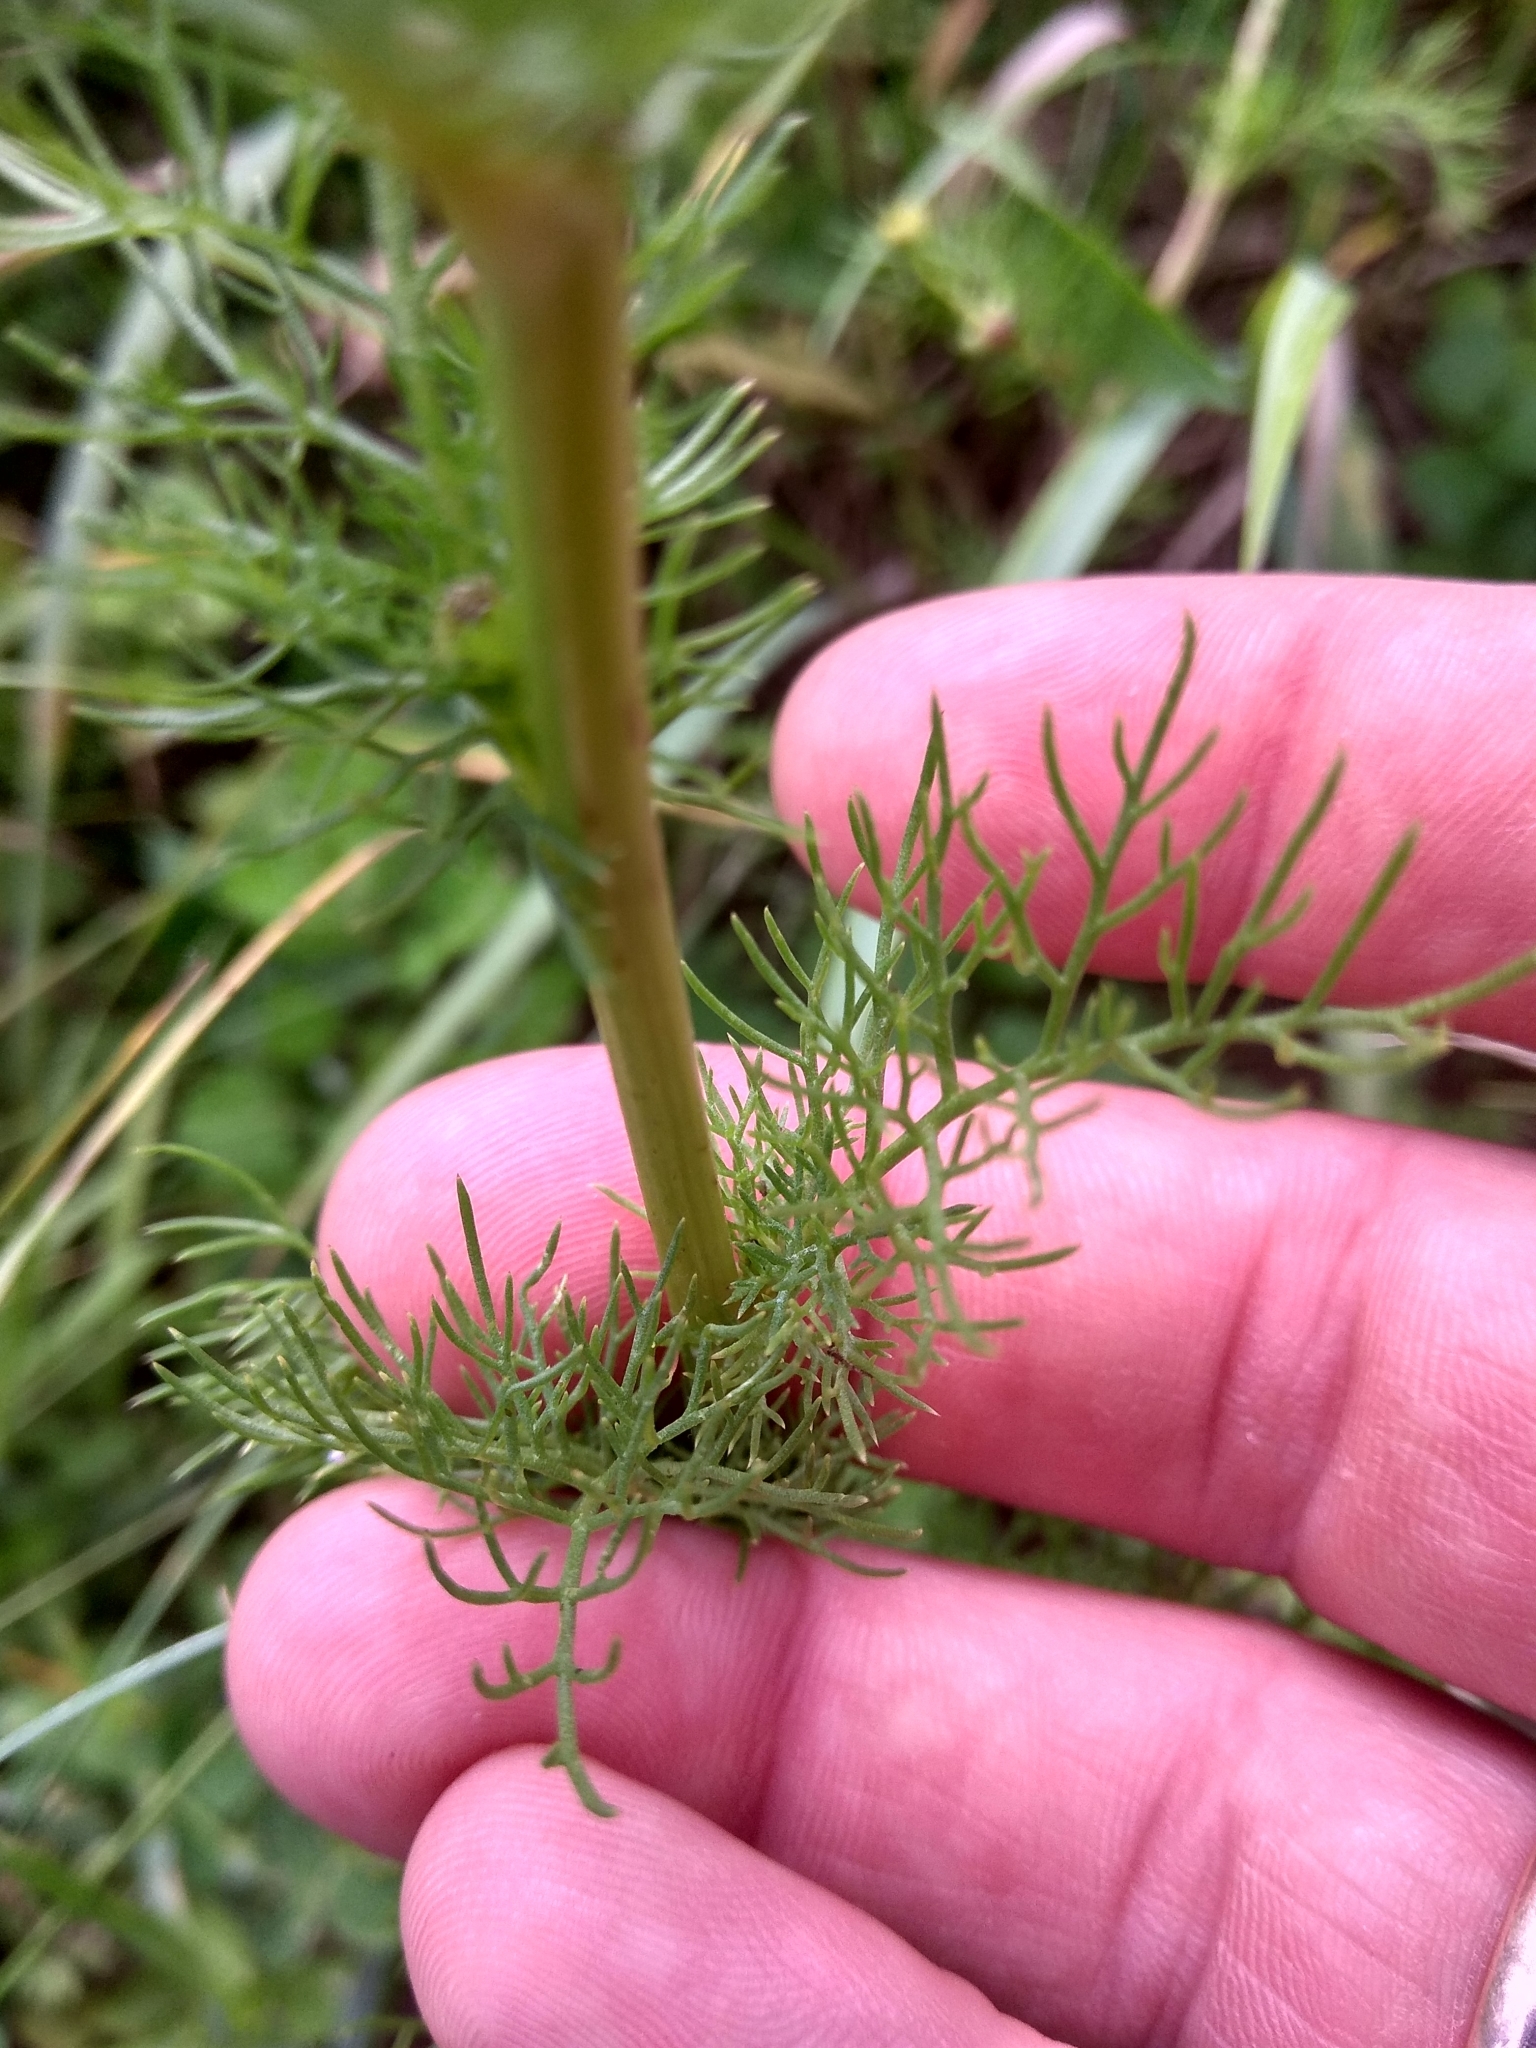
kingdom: Plantae
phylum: Tracheophyta
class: Magnoliopsida
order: Asterales
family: Asteraceae
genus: Tripleurospermum
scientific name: Tripleurospermum inodorum
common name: Scentless mayweed
